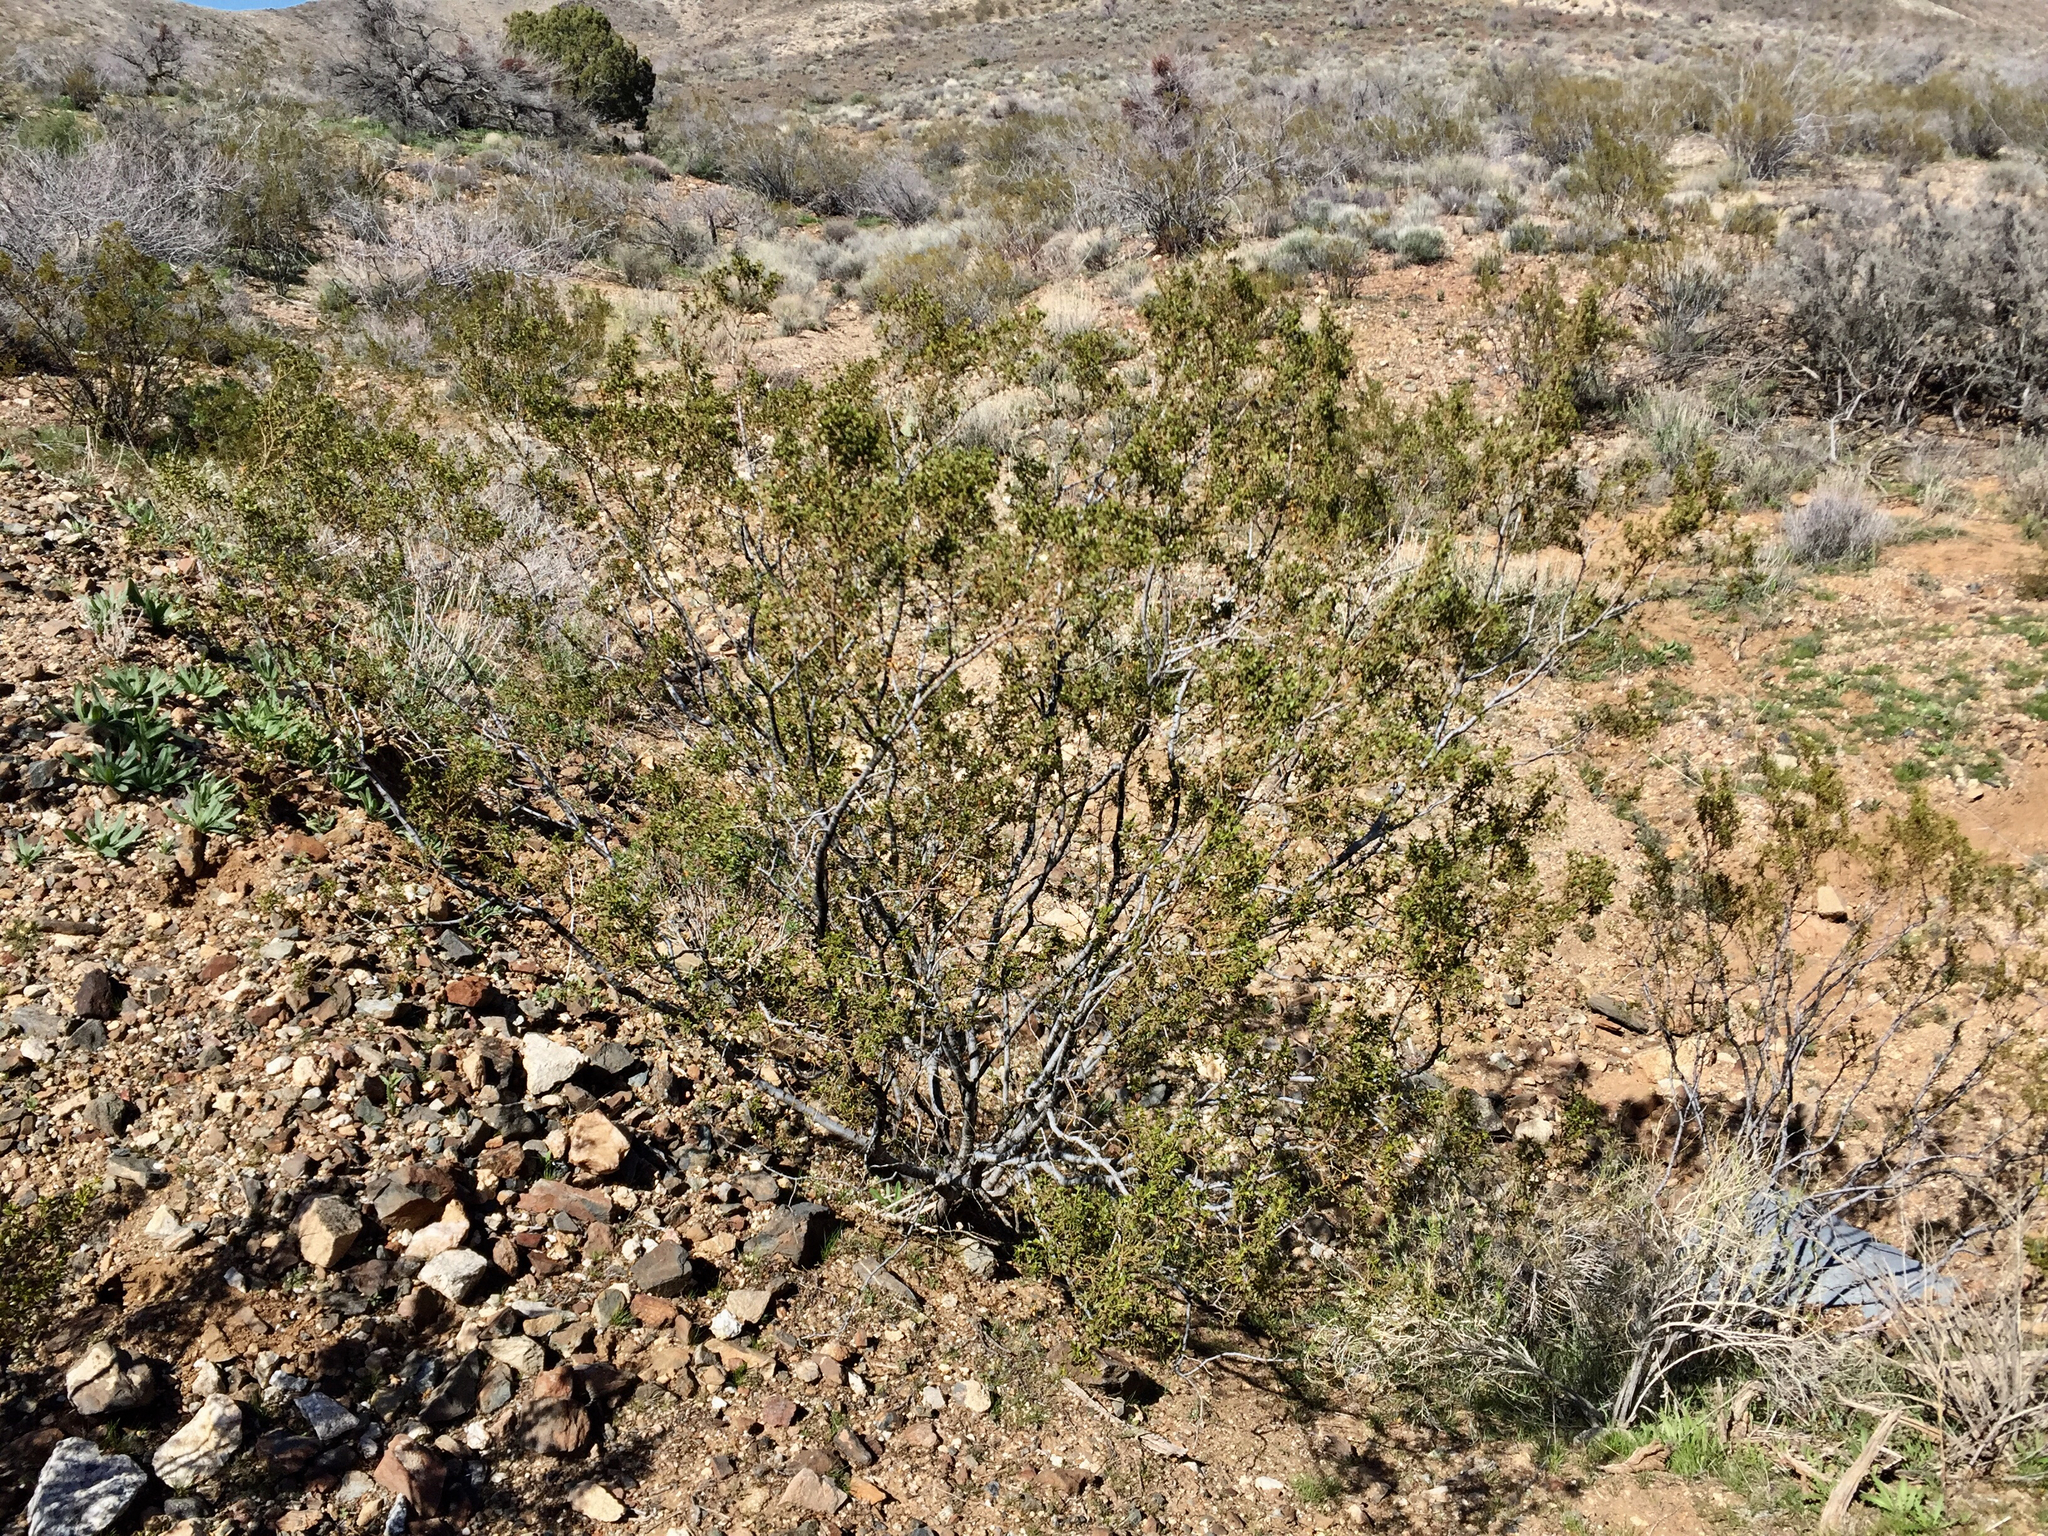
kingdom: Plantae
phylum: Tracheophyta
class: Magnoliopsida
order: Zygophyllales
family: Zygophyllaceae
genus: Larrea
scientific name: Larrea tridentata
